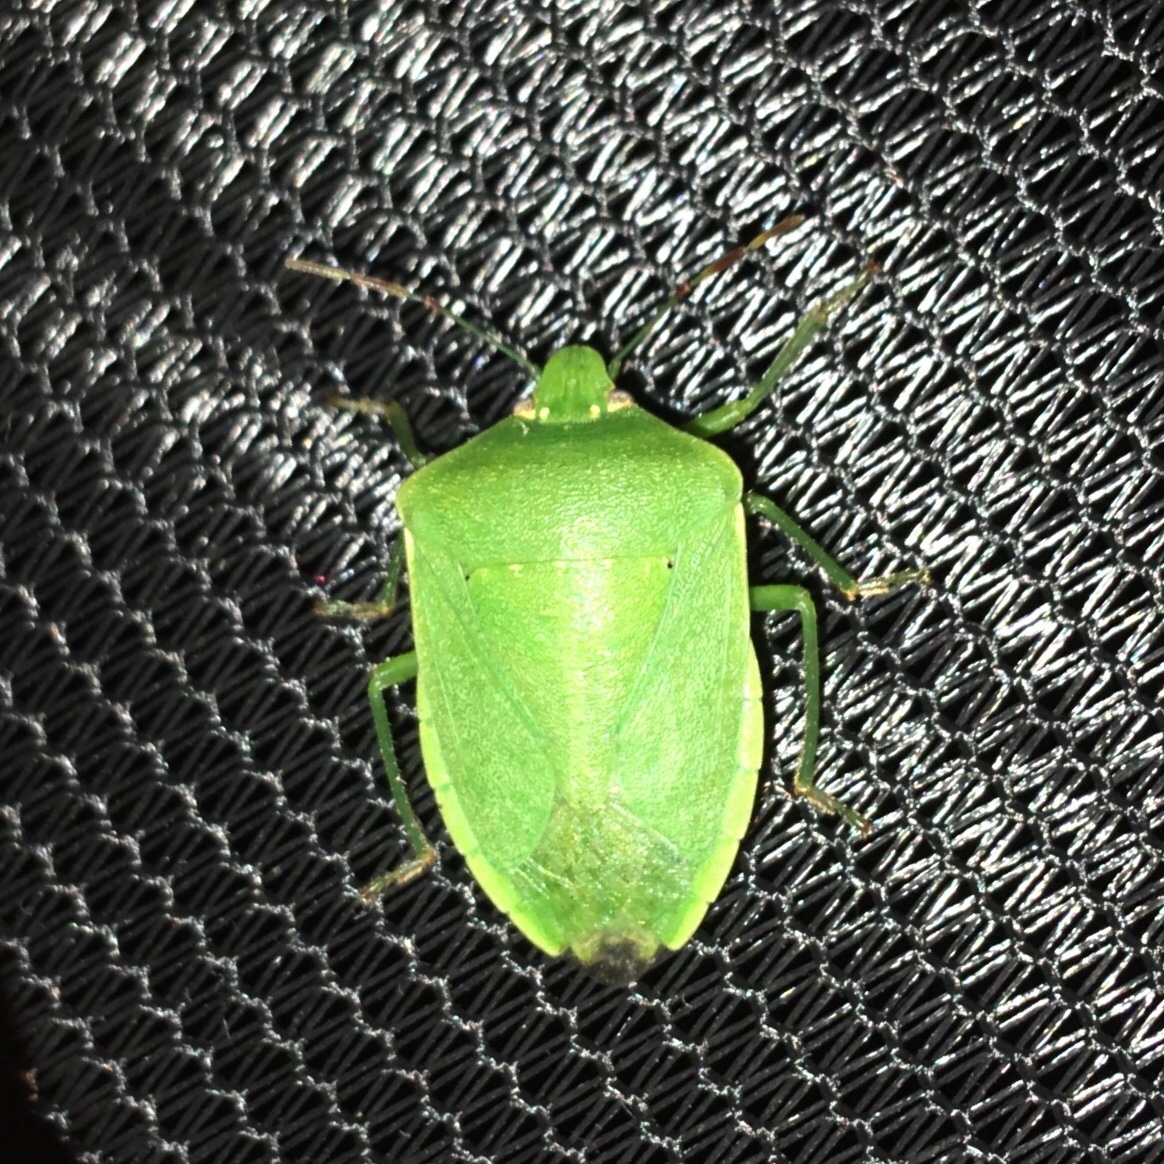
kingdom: Animalia
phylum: Arthropoda
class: Insecta
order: Hemiptera
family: Pentatomidae
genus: Nezara
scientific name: Nezara viridula
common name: Southern green stink bug
